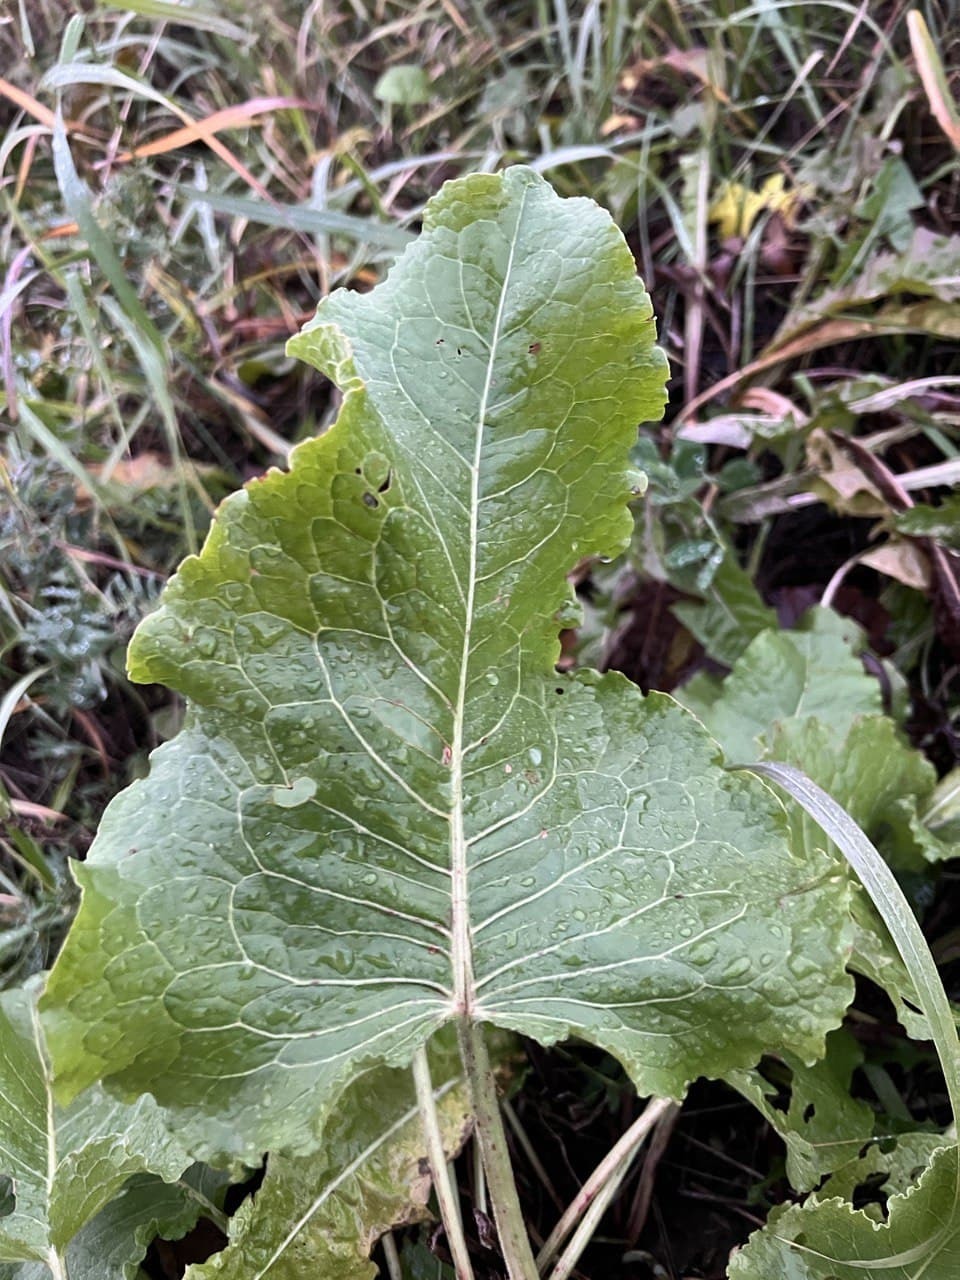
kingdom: Plantae
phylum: Tracheophyta
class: Magnoliopsida
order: Caryophyllales
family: Polygonaceae
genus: Rumex
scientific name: Rumex confertus
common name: Russian dock
